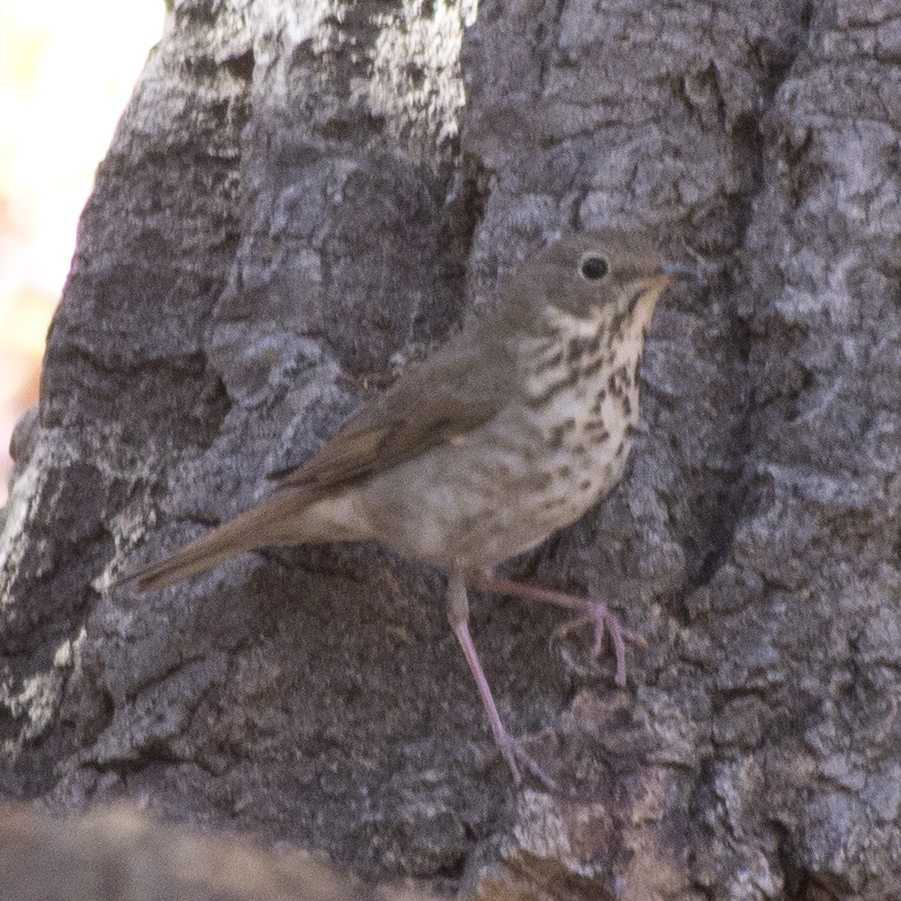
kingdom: Animalia
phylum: Chordata
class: Aves
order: Passeriformes
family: Turdidae
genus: Catharus
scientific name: Catharus guttatus
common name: Hermit thrush
